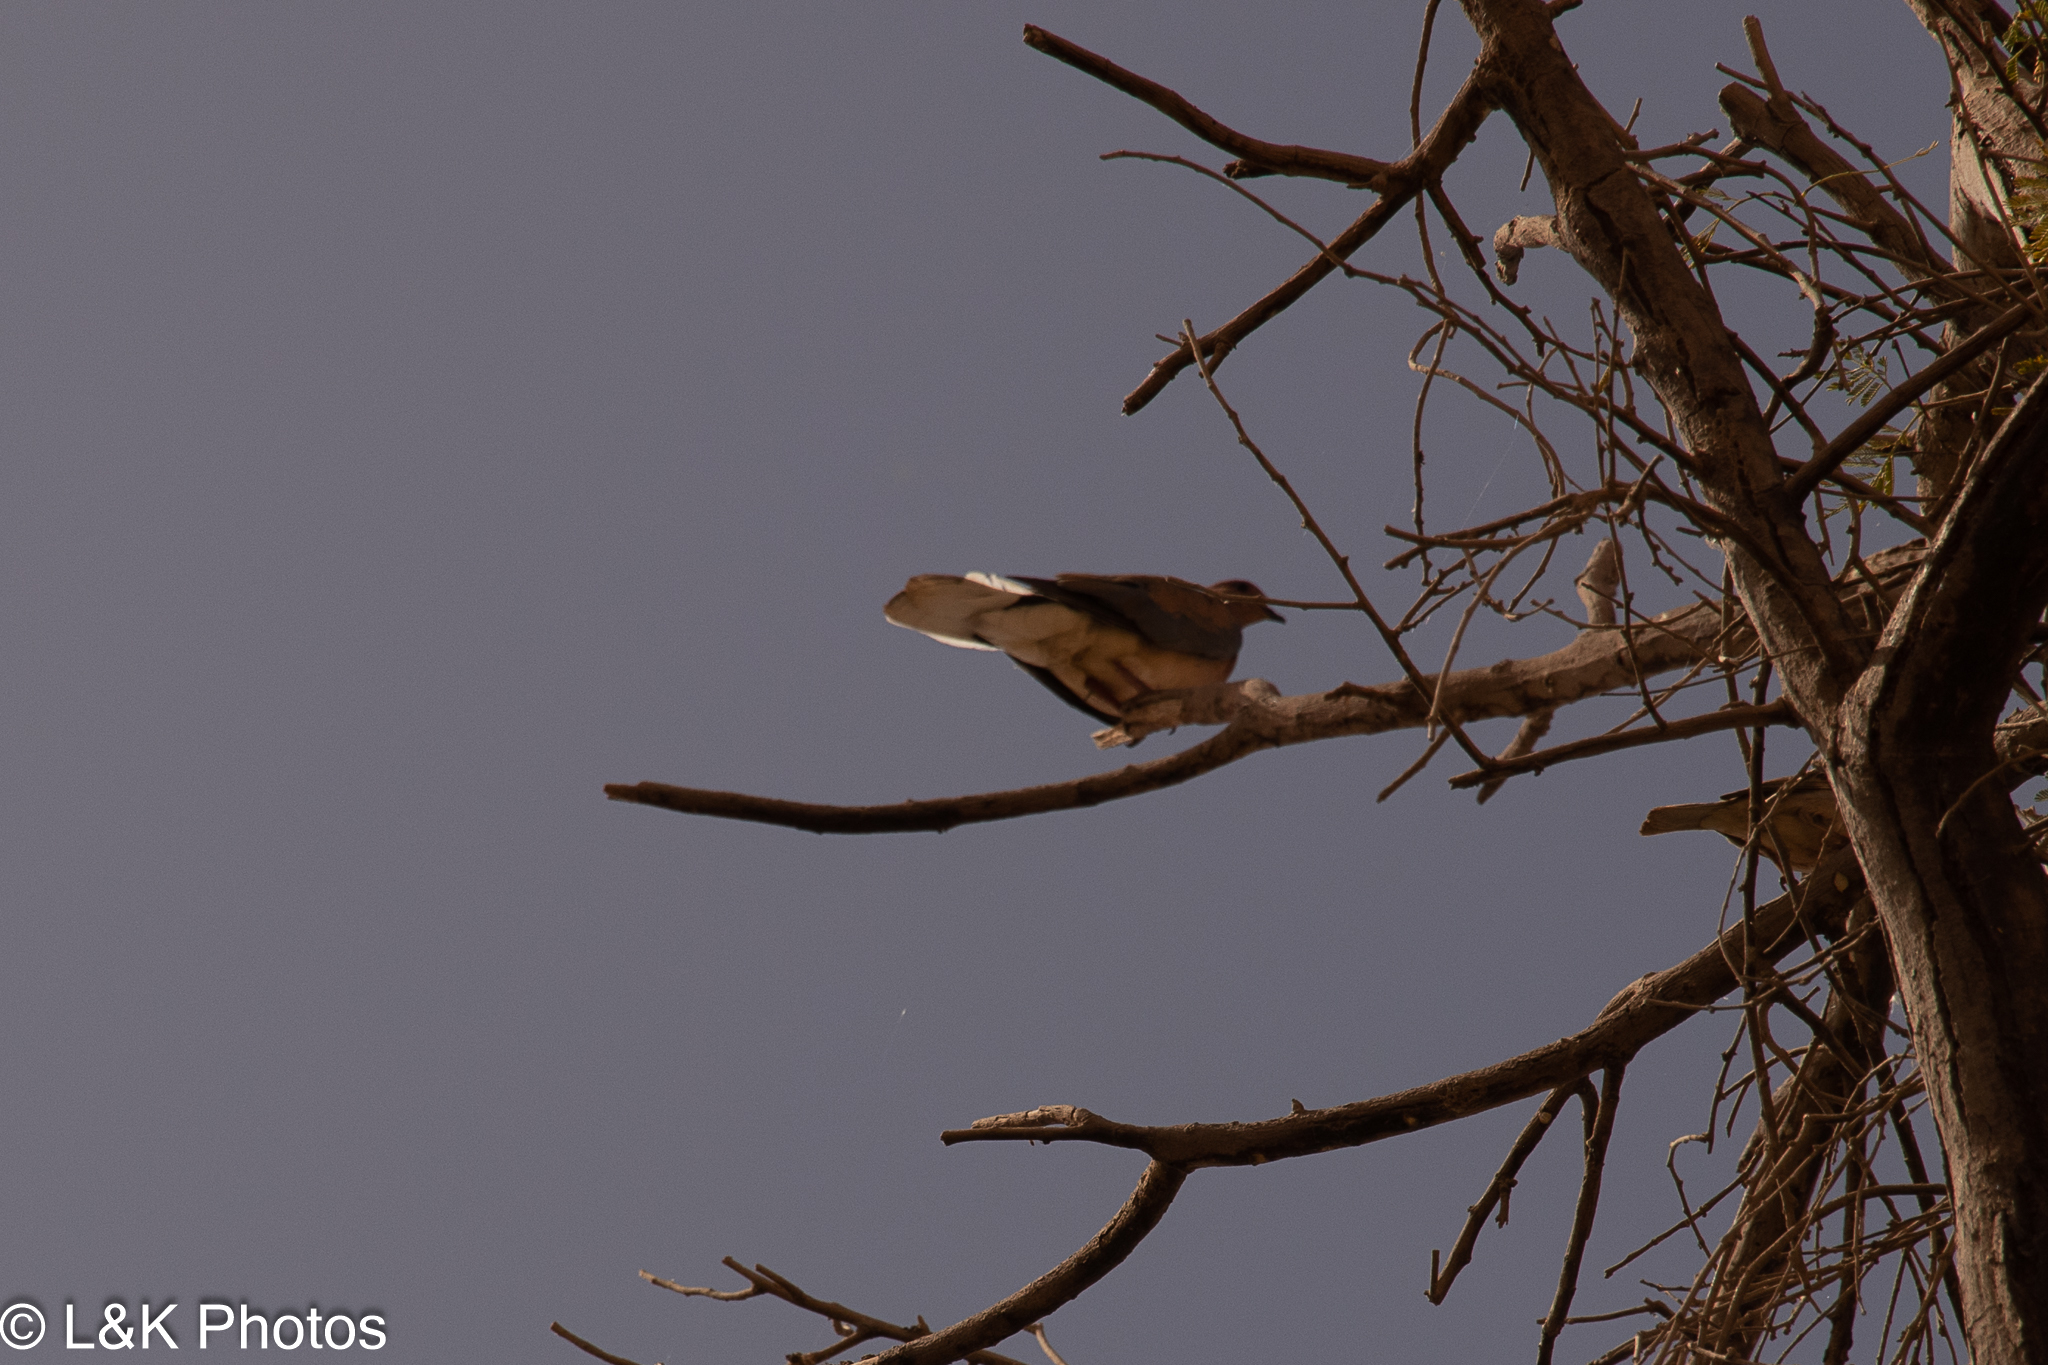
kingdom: Animalia
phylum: Chordata
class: Aves
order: Columbiformes
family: Columbidae
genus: Spilopelia
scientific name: Spilopelia senegalensis
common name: Laughing dove
